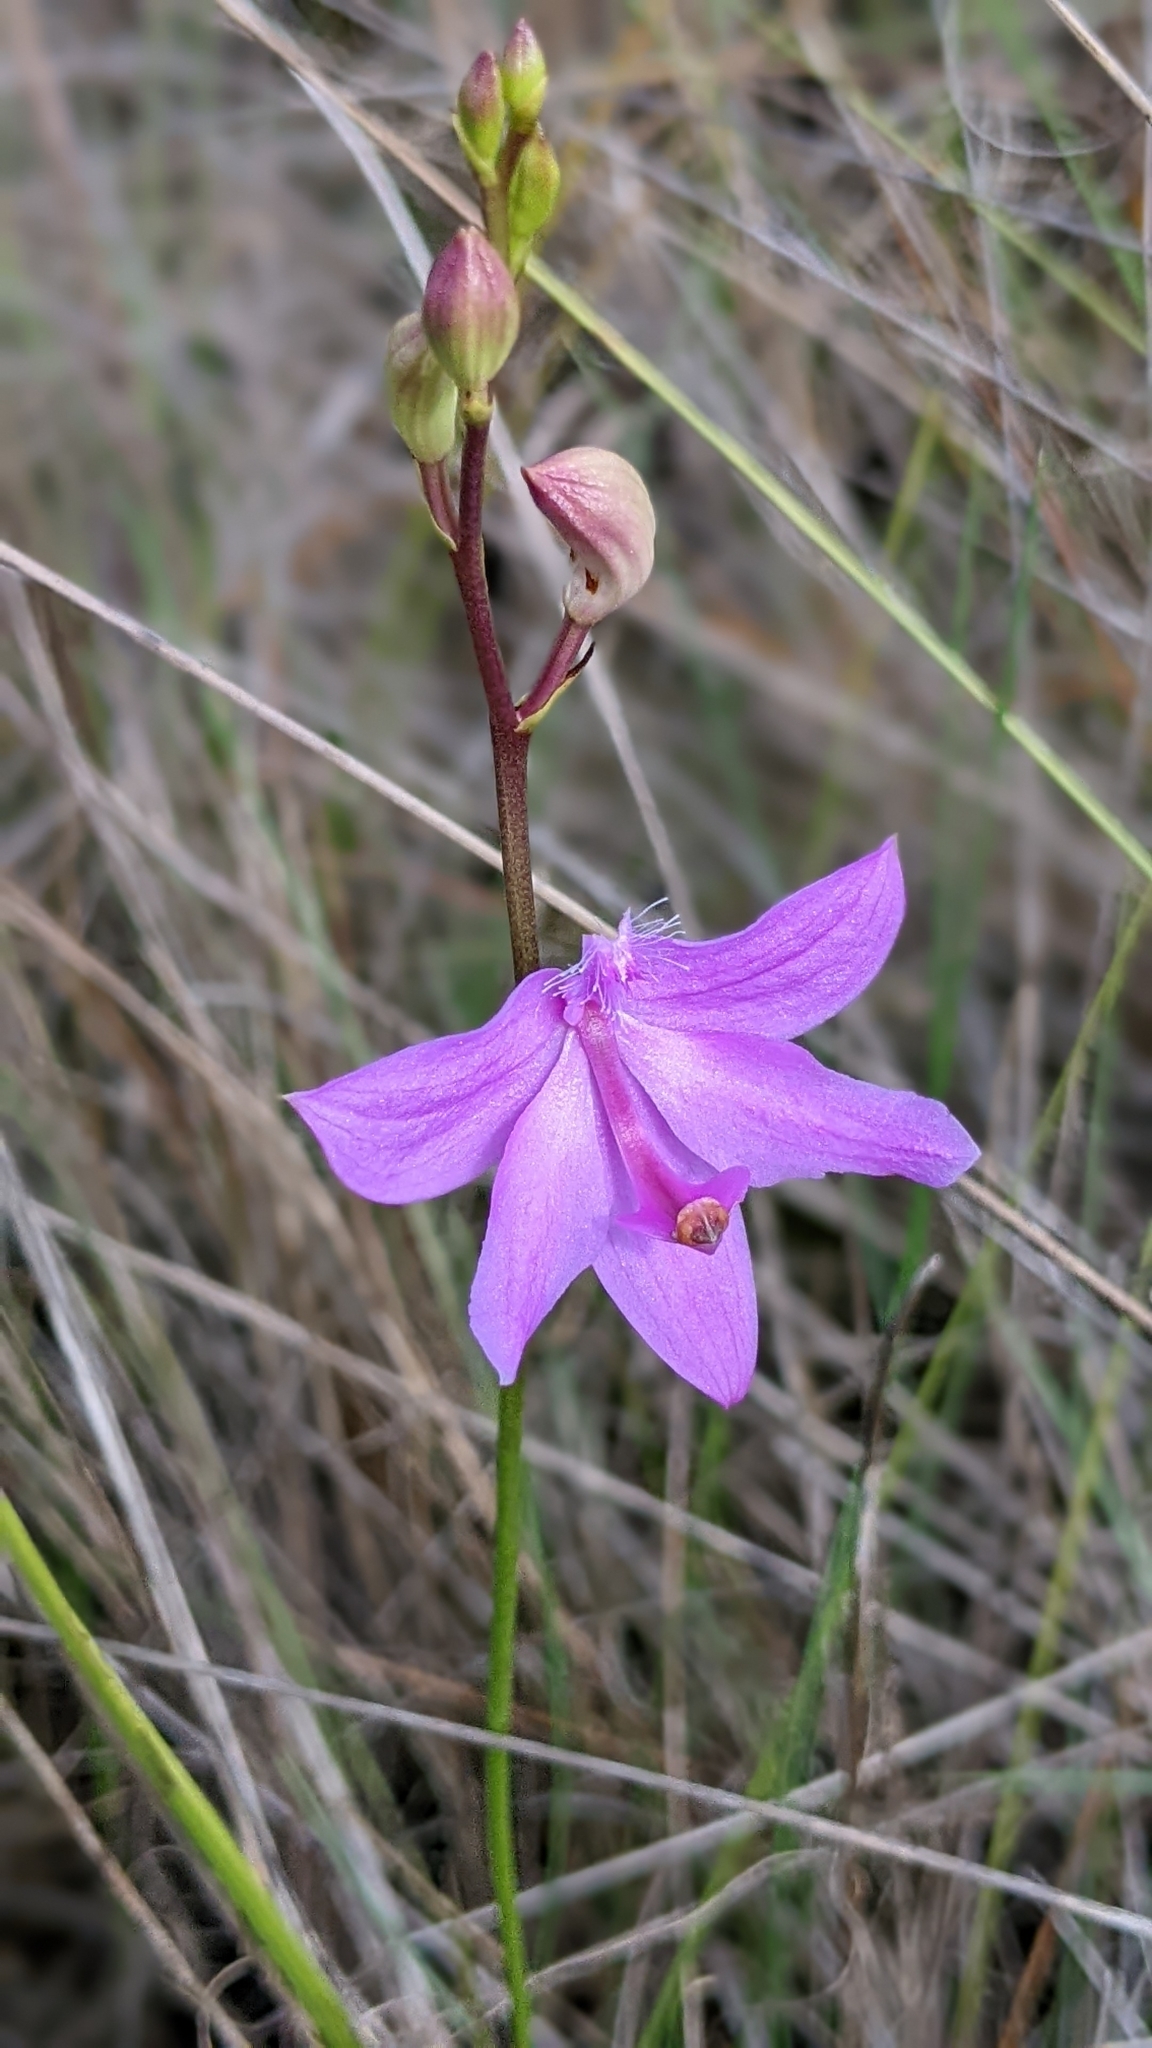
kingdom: Plantae
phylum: Tracheophyta
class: Liliopsida
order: Asparagales
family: Orchidaceae
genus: Calopogon
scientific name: Calopogon tuberosus
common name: Grass-pink
